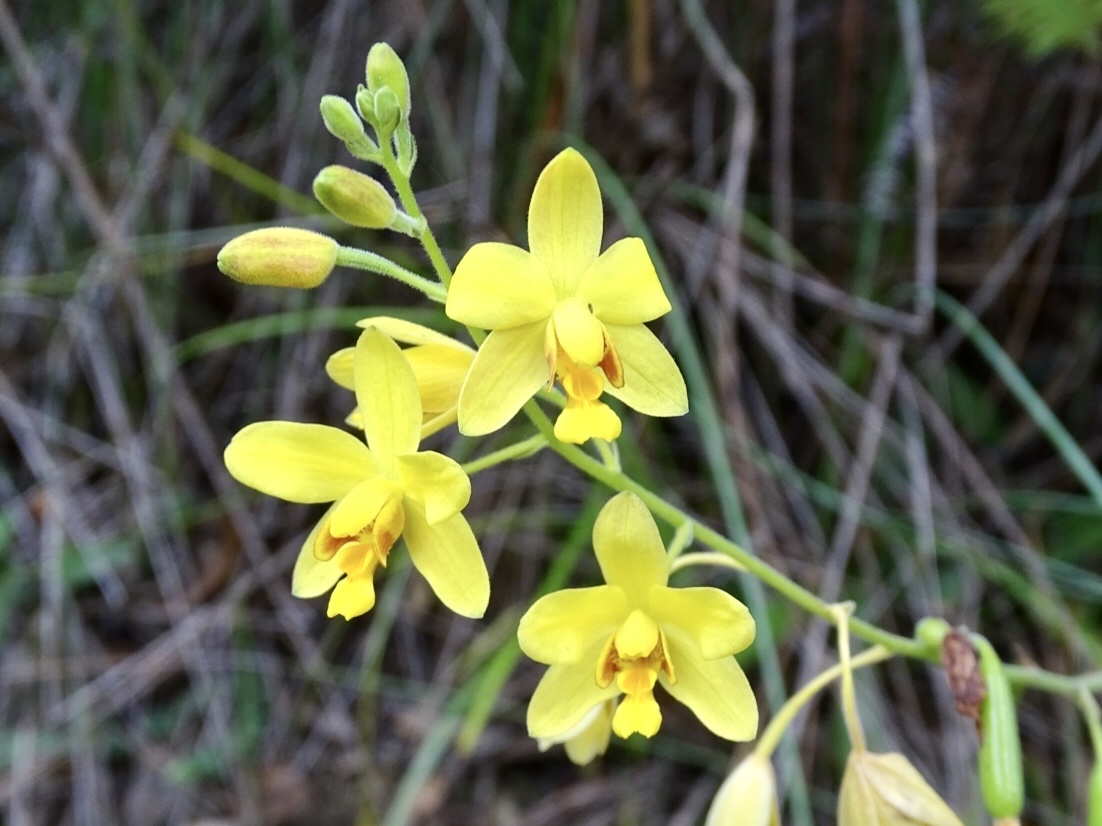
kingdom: Plantae
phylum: Tracheophyta
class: Liliopsida
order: Asparagales
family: Orchidaceae
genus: Spathoglottis
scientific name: Spathoglottis pubescens
